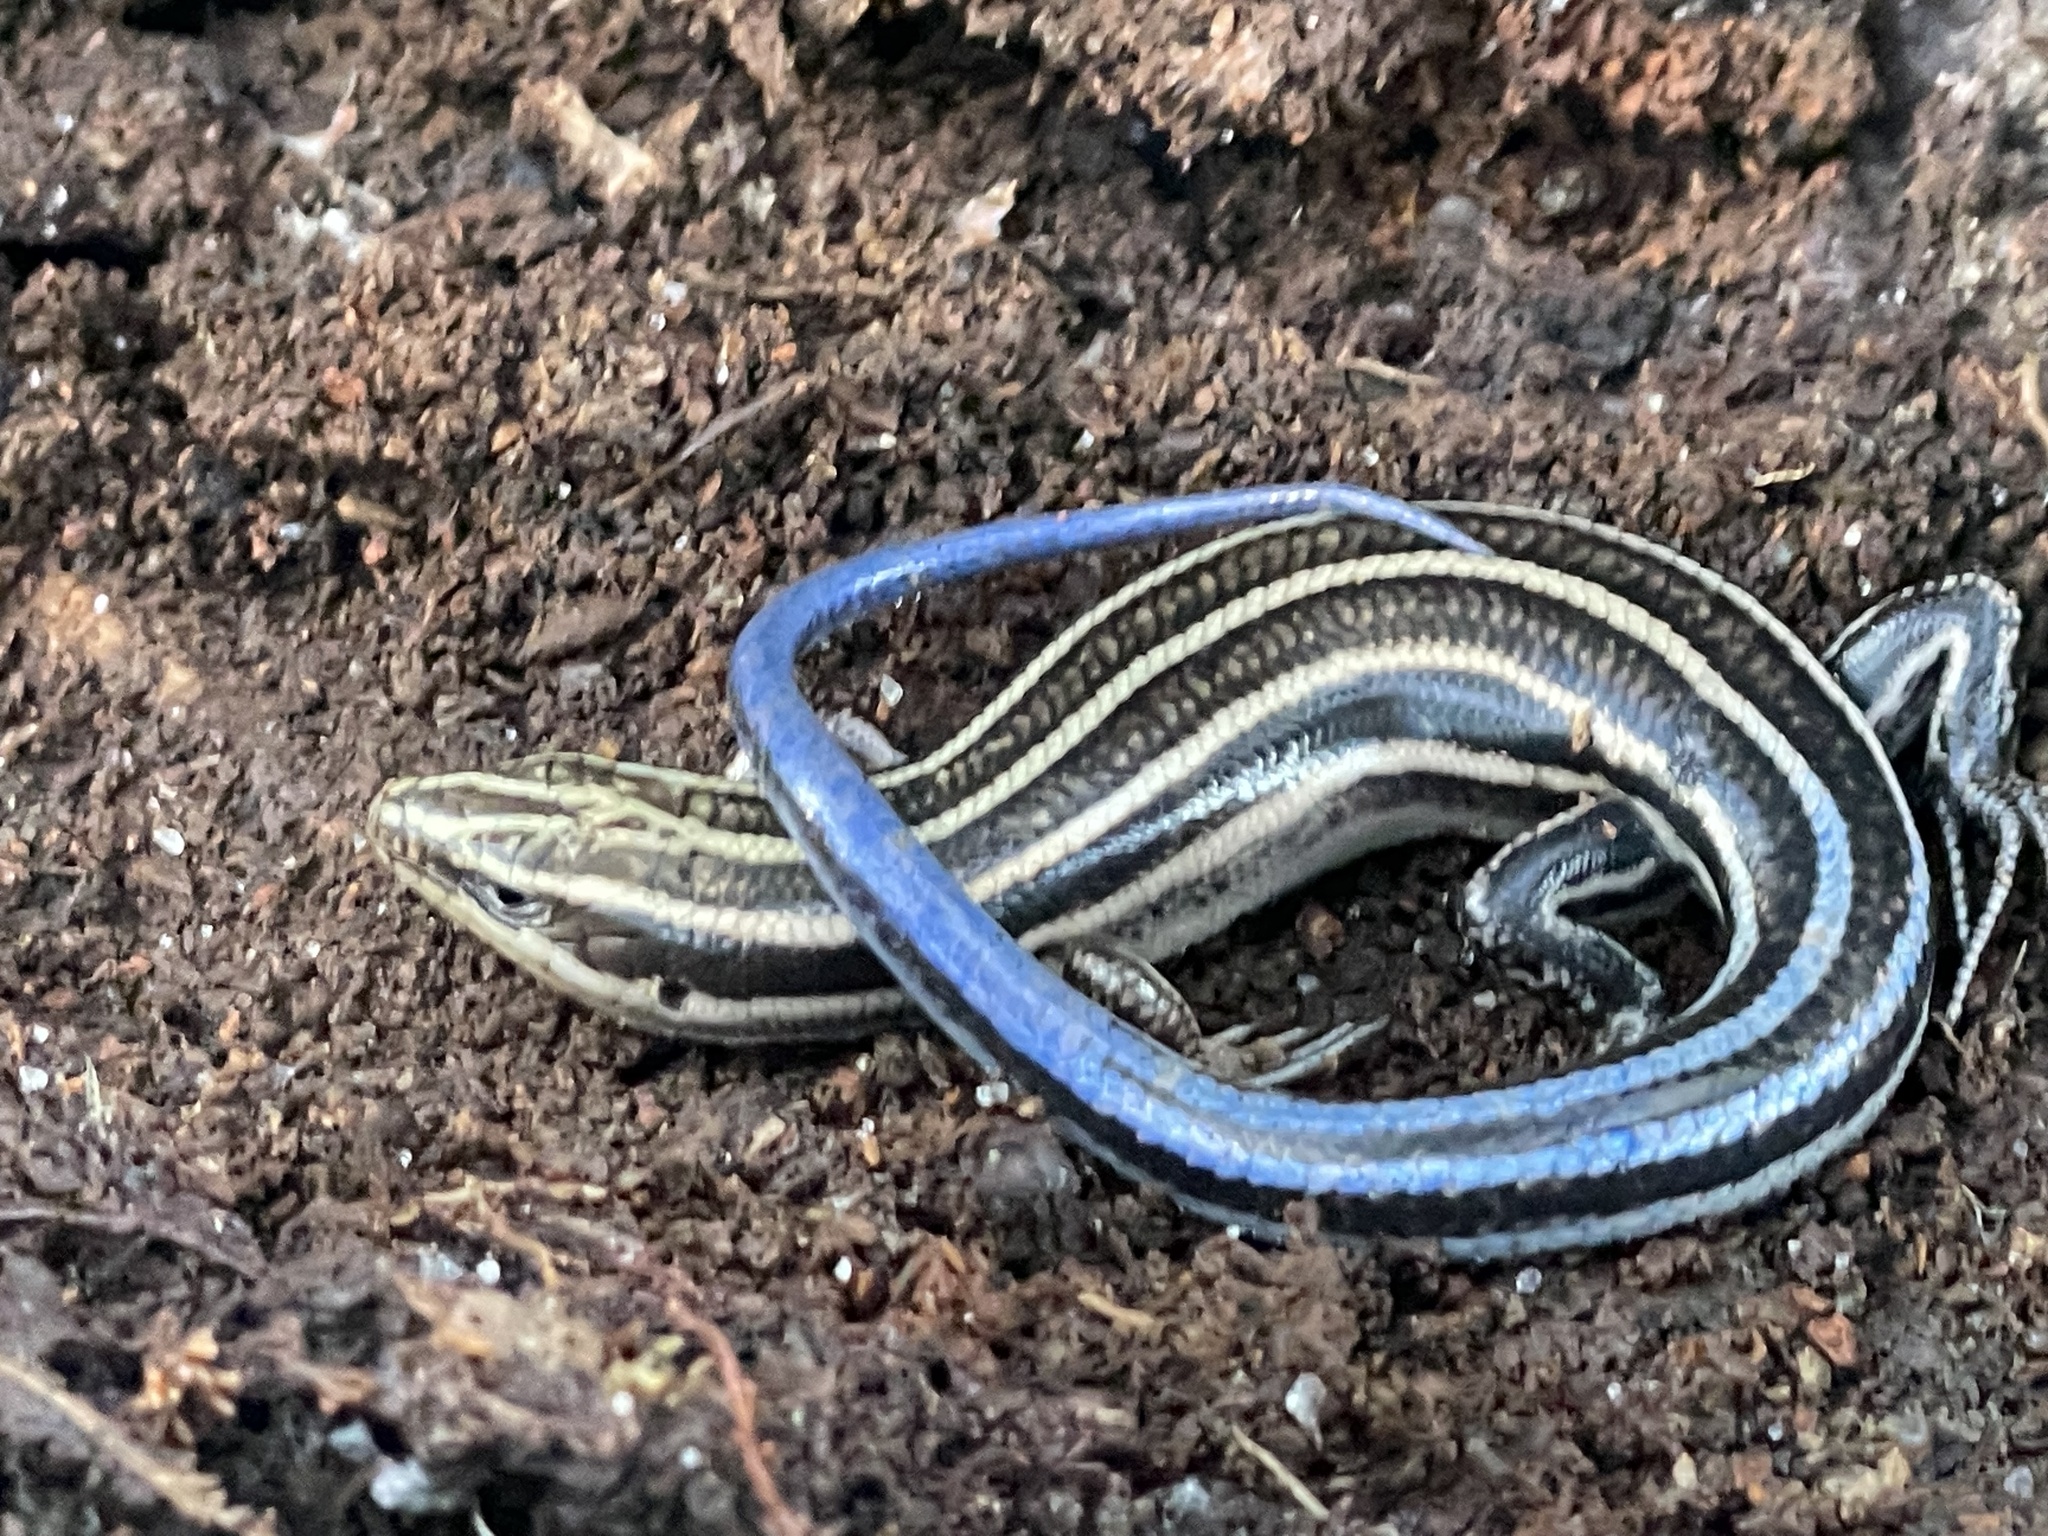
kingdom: Animalia
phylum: Chordata
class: Squamata
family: Scincidae
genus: Plestiodon
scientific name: Plestiodon fasciatus
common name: Five-lined skink
